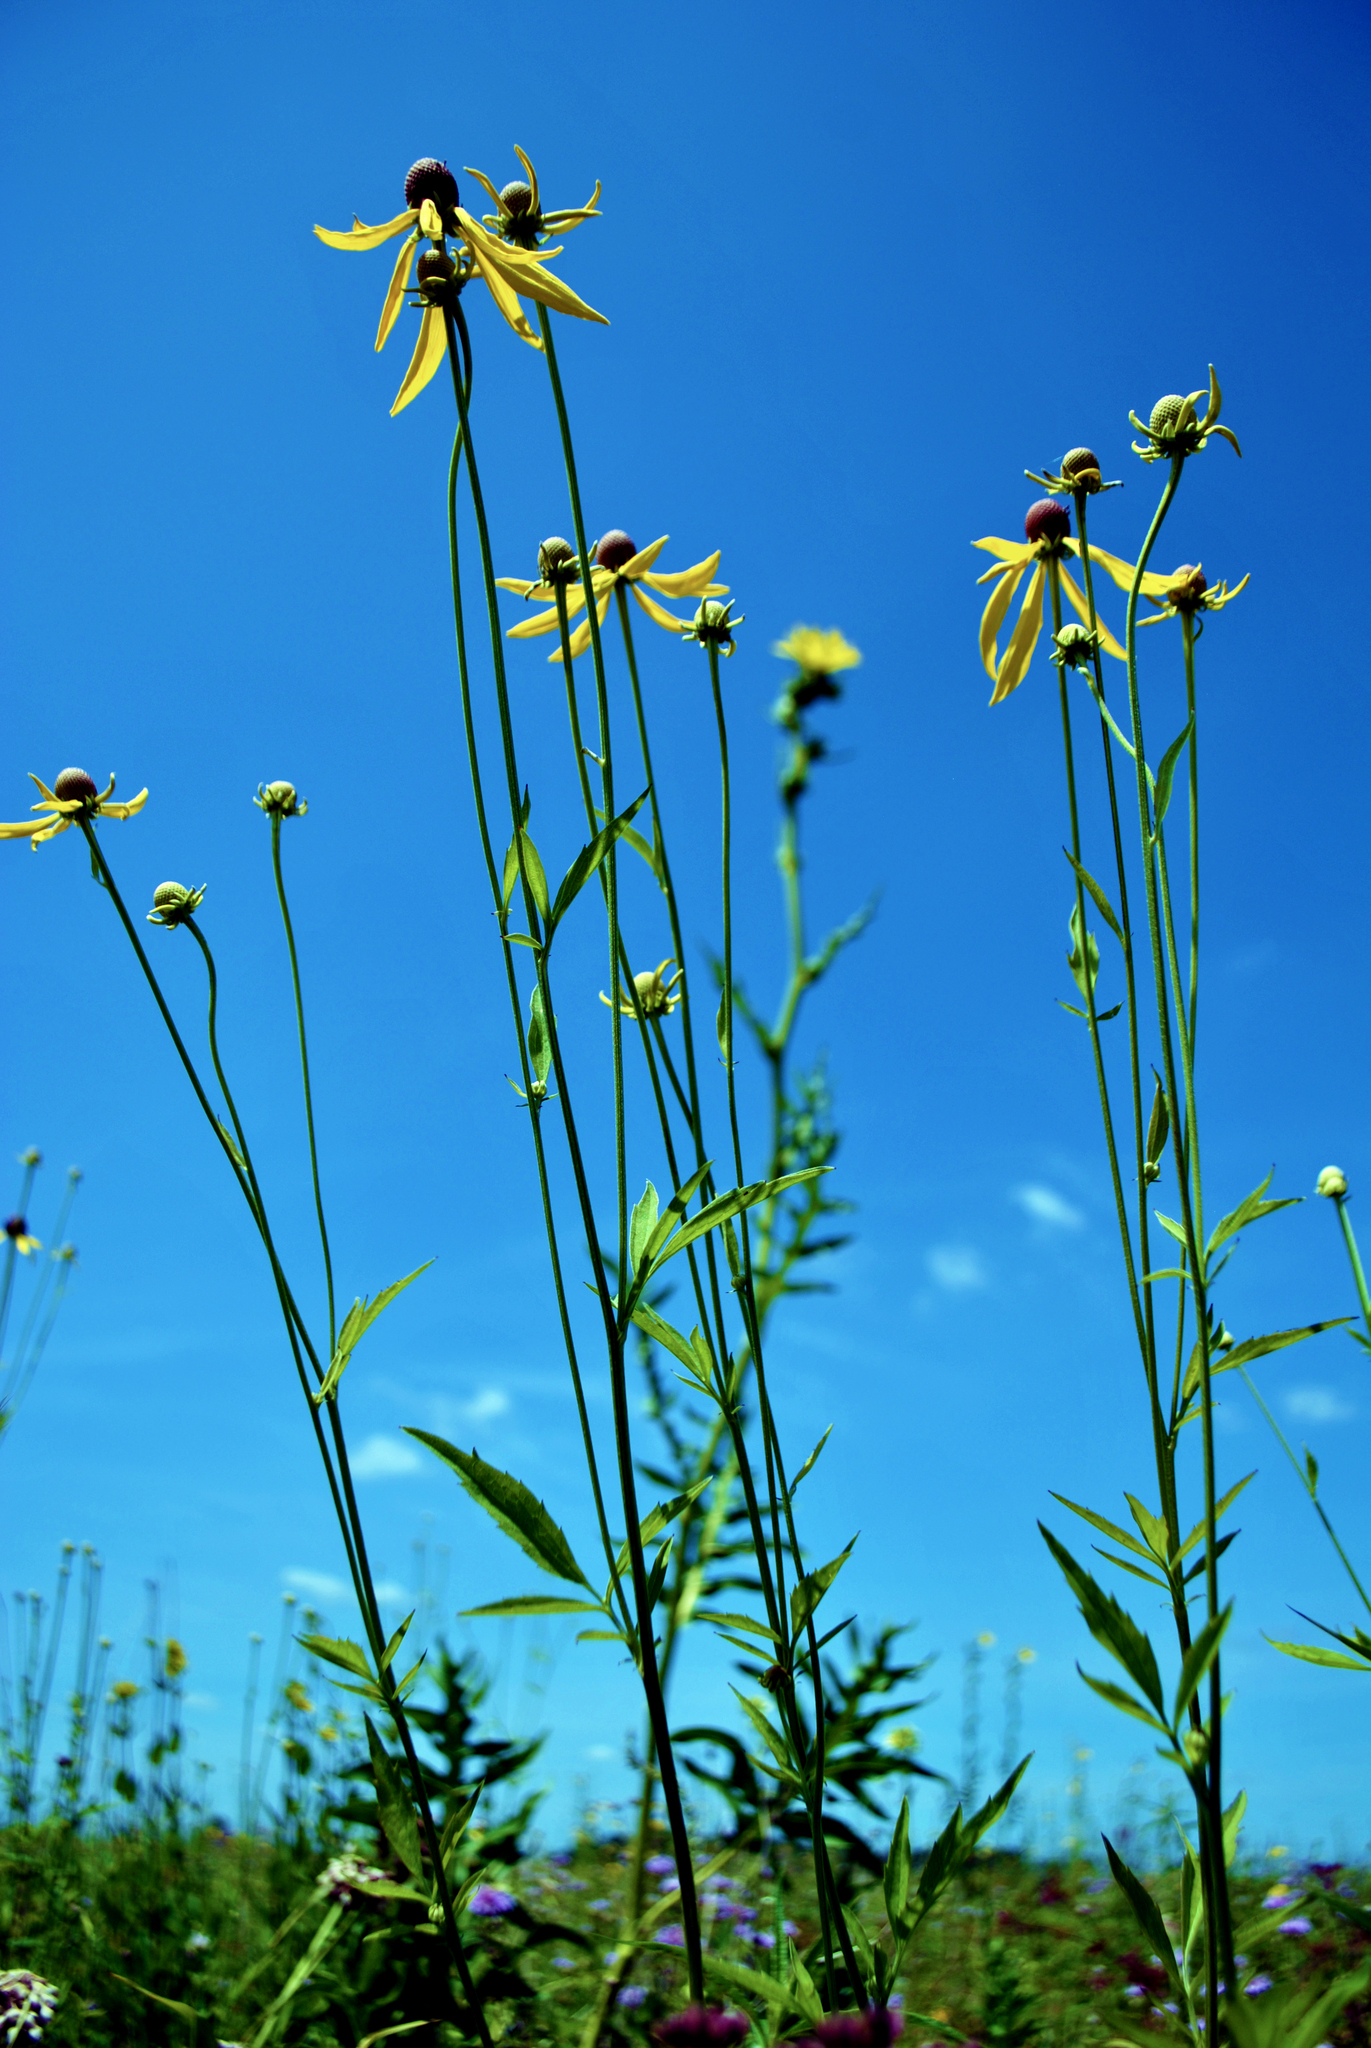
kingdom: Plantae
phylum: Tracheophyta
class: Magnoliopsida
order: Asterales
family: Asteraceae
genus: Ratibida
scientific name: Ratibida pinnata
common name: Drooping prairie-coneflower
